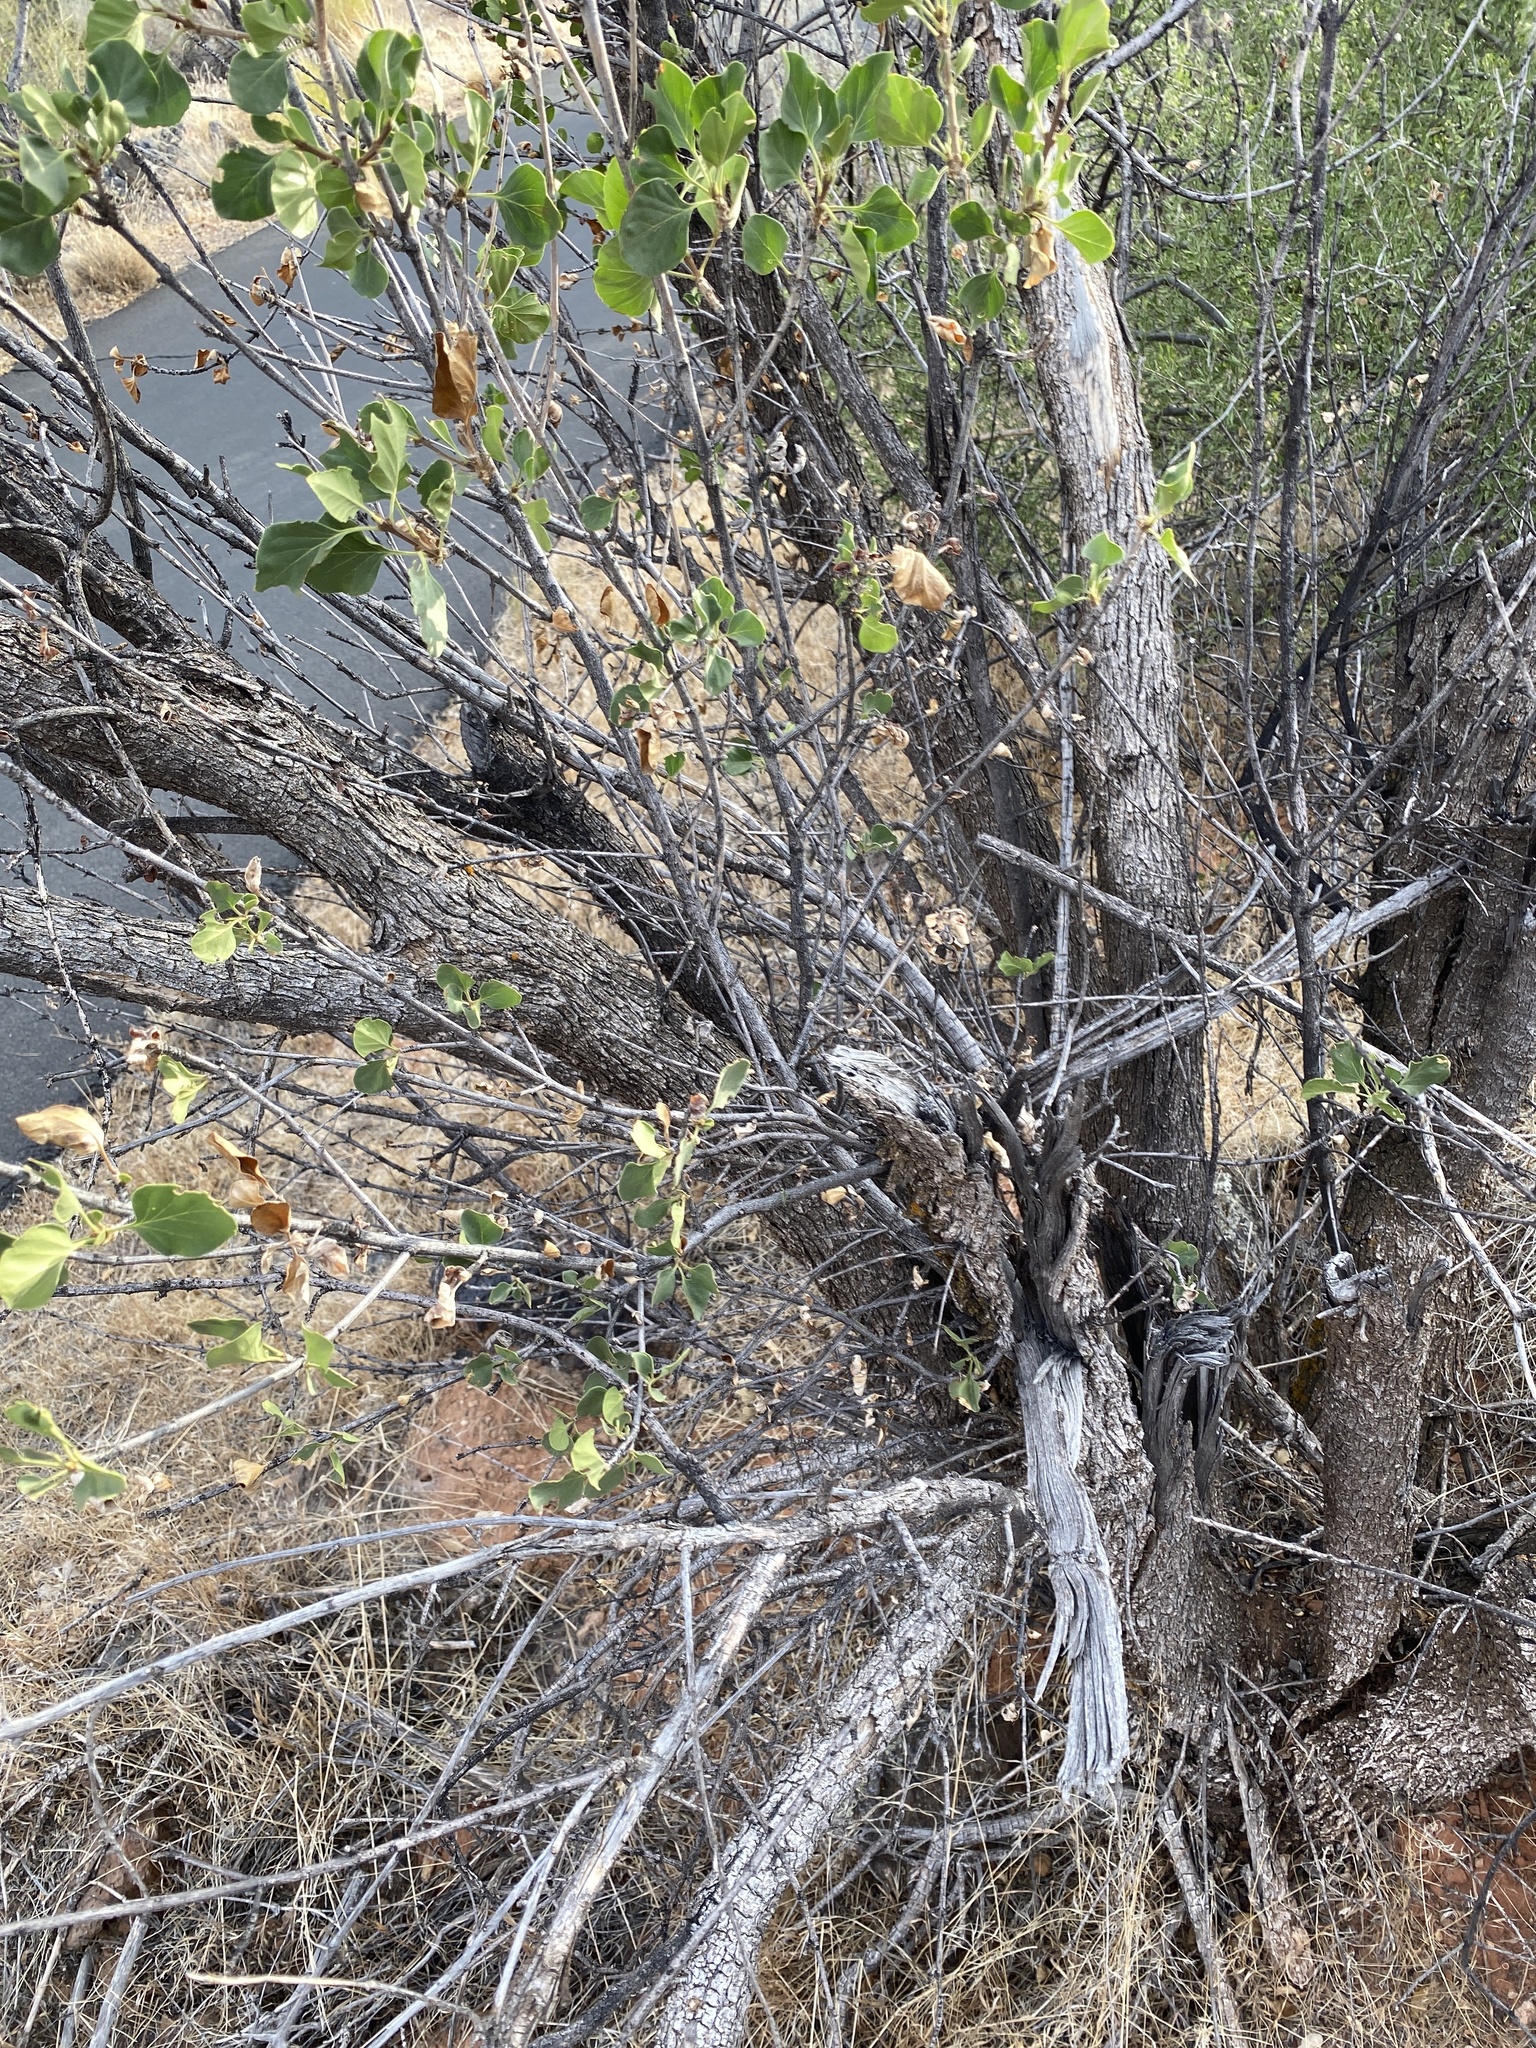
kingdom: Plantae
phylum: Tracheophyta
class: Magnoliopsida
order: Lamiales
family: Oleaceae
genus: Fraxinus
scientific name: Fraxinus anomala
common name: Utah ash
